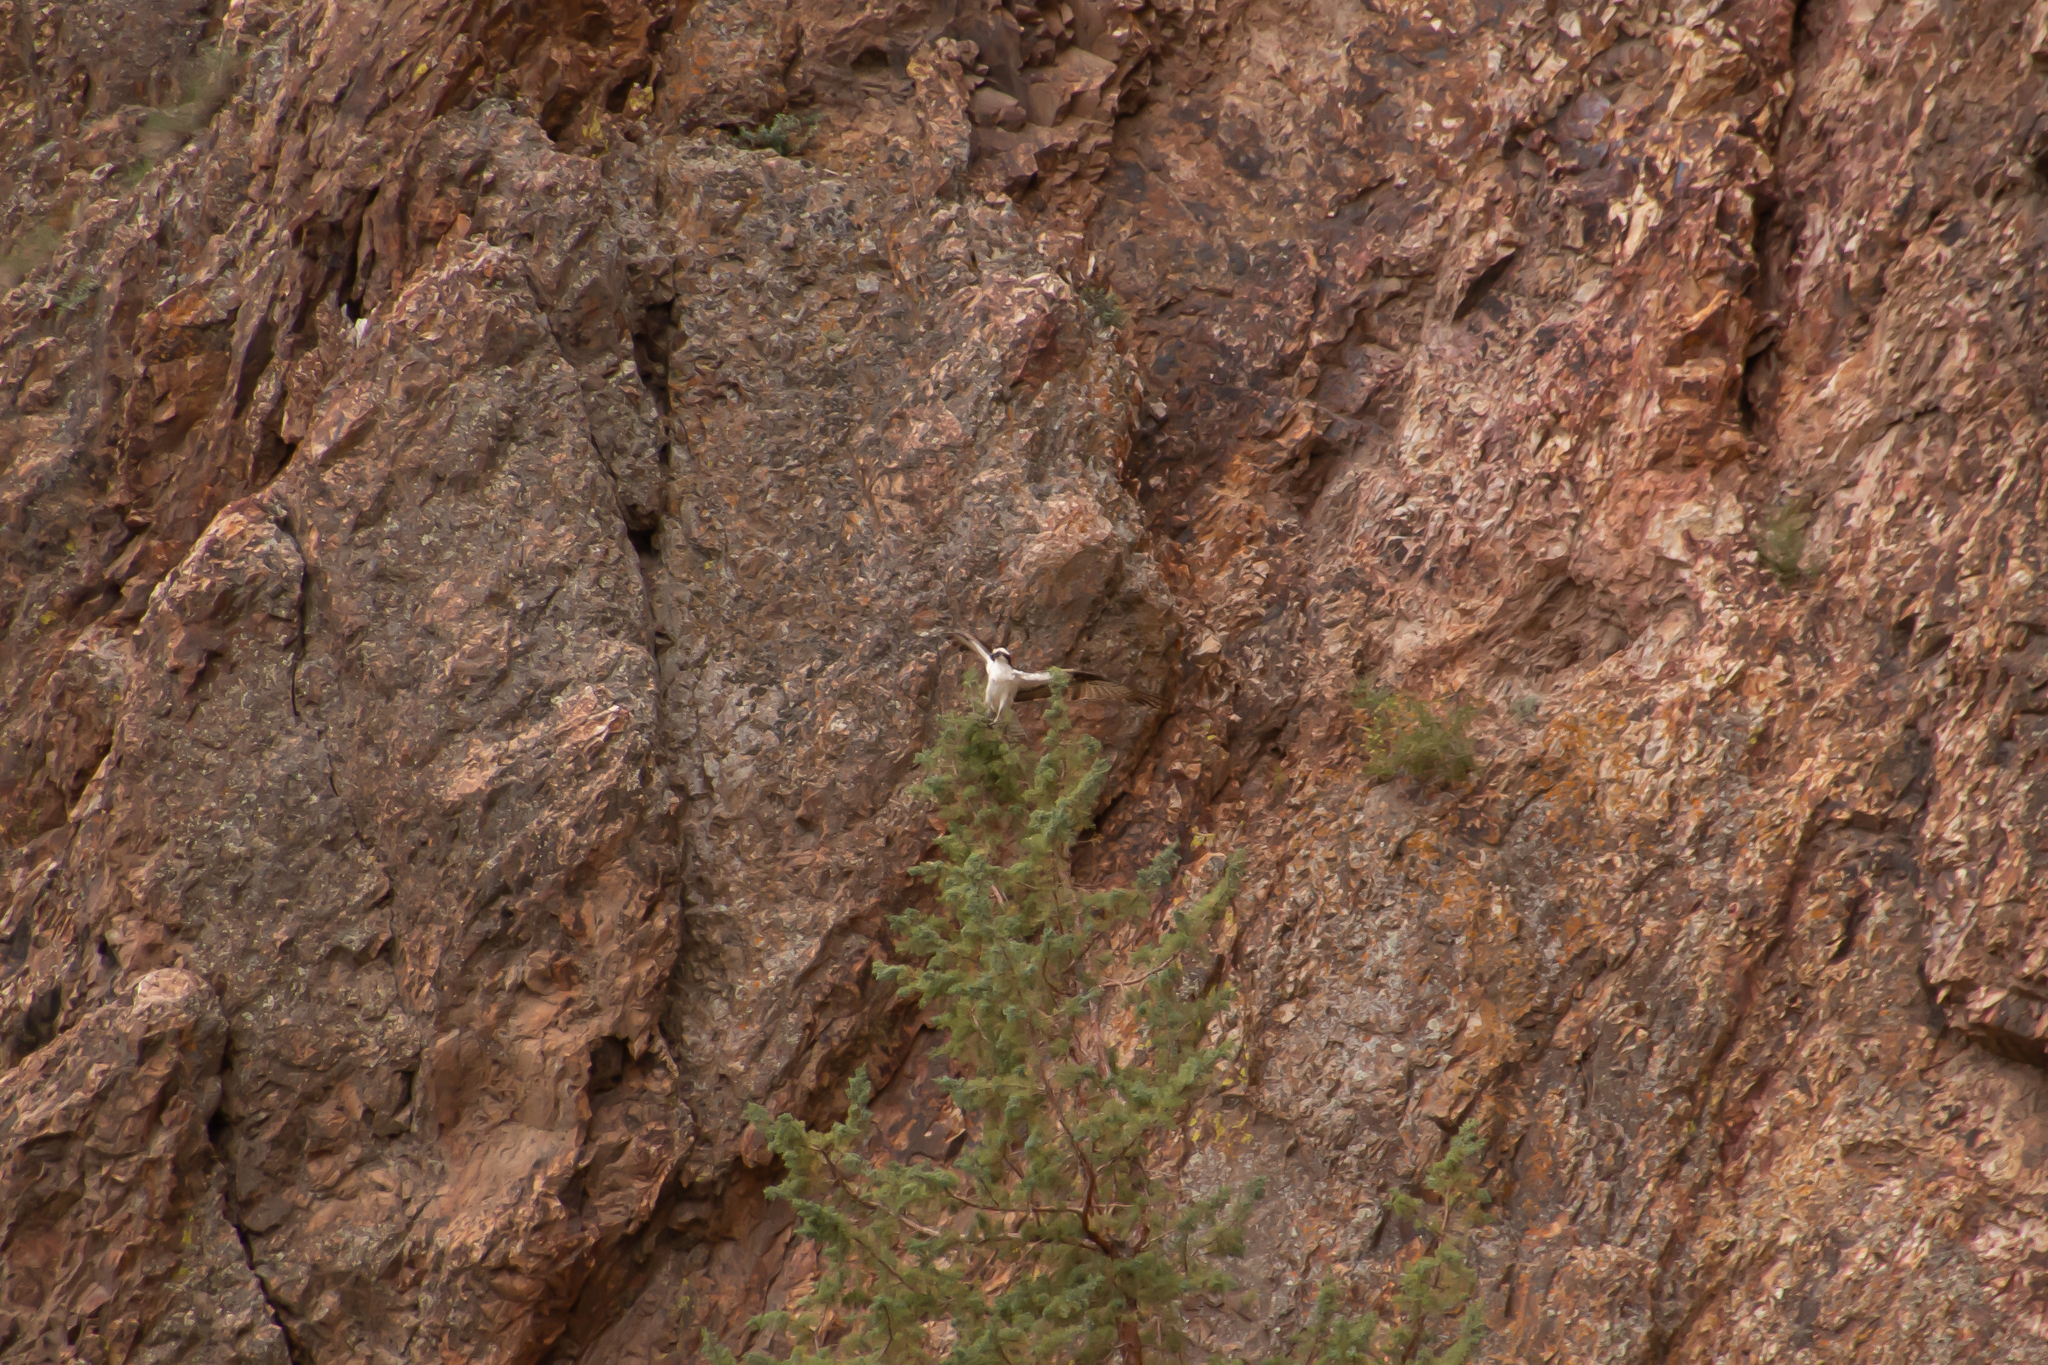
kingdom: Animalia
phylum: Chordata
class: Aves
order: Accipitriformes
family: Pandionidae
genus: Pandion
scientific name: Pandion haliaetus
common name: Osprey
